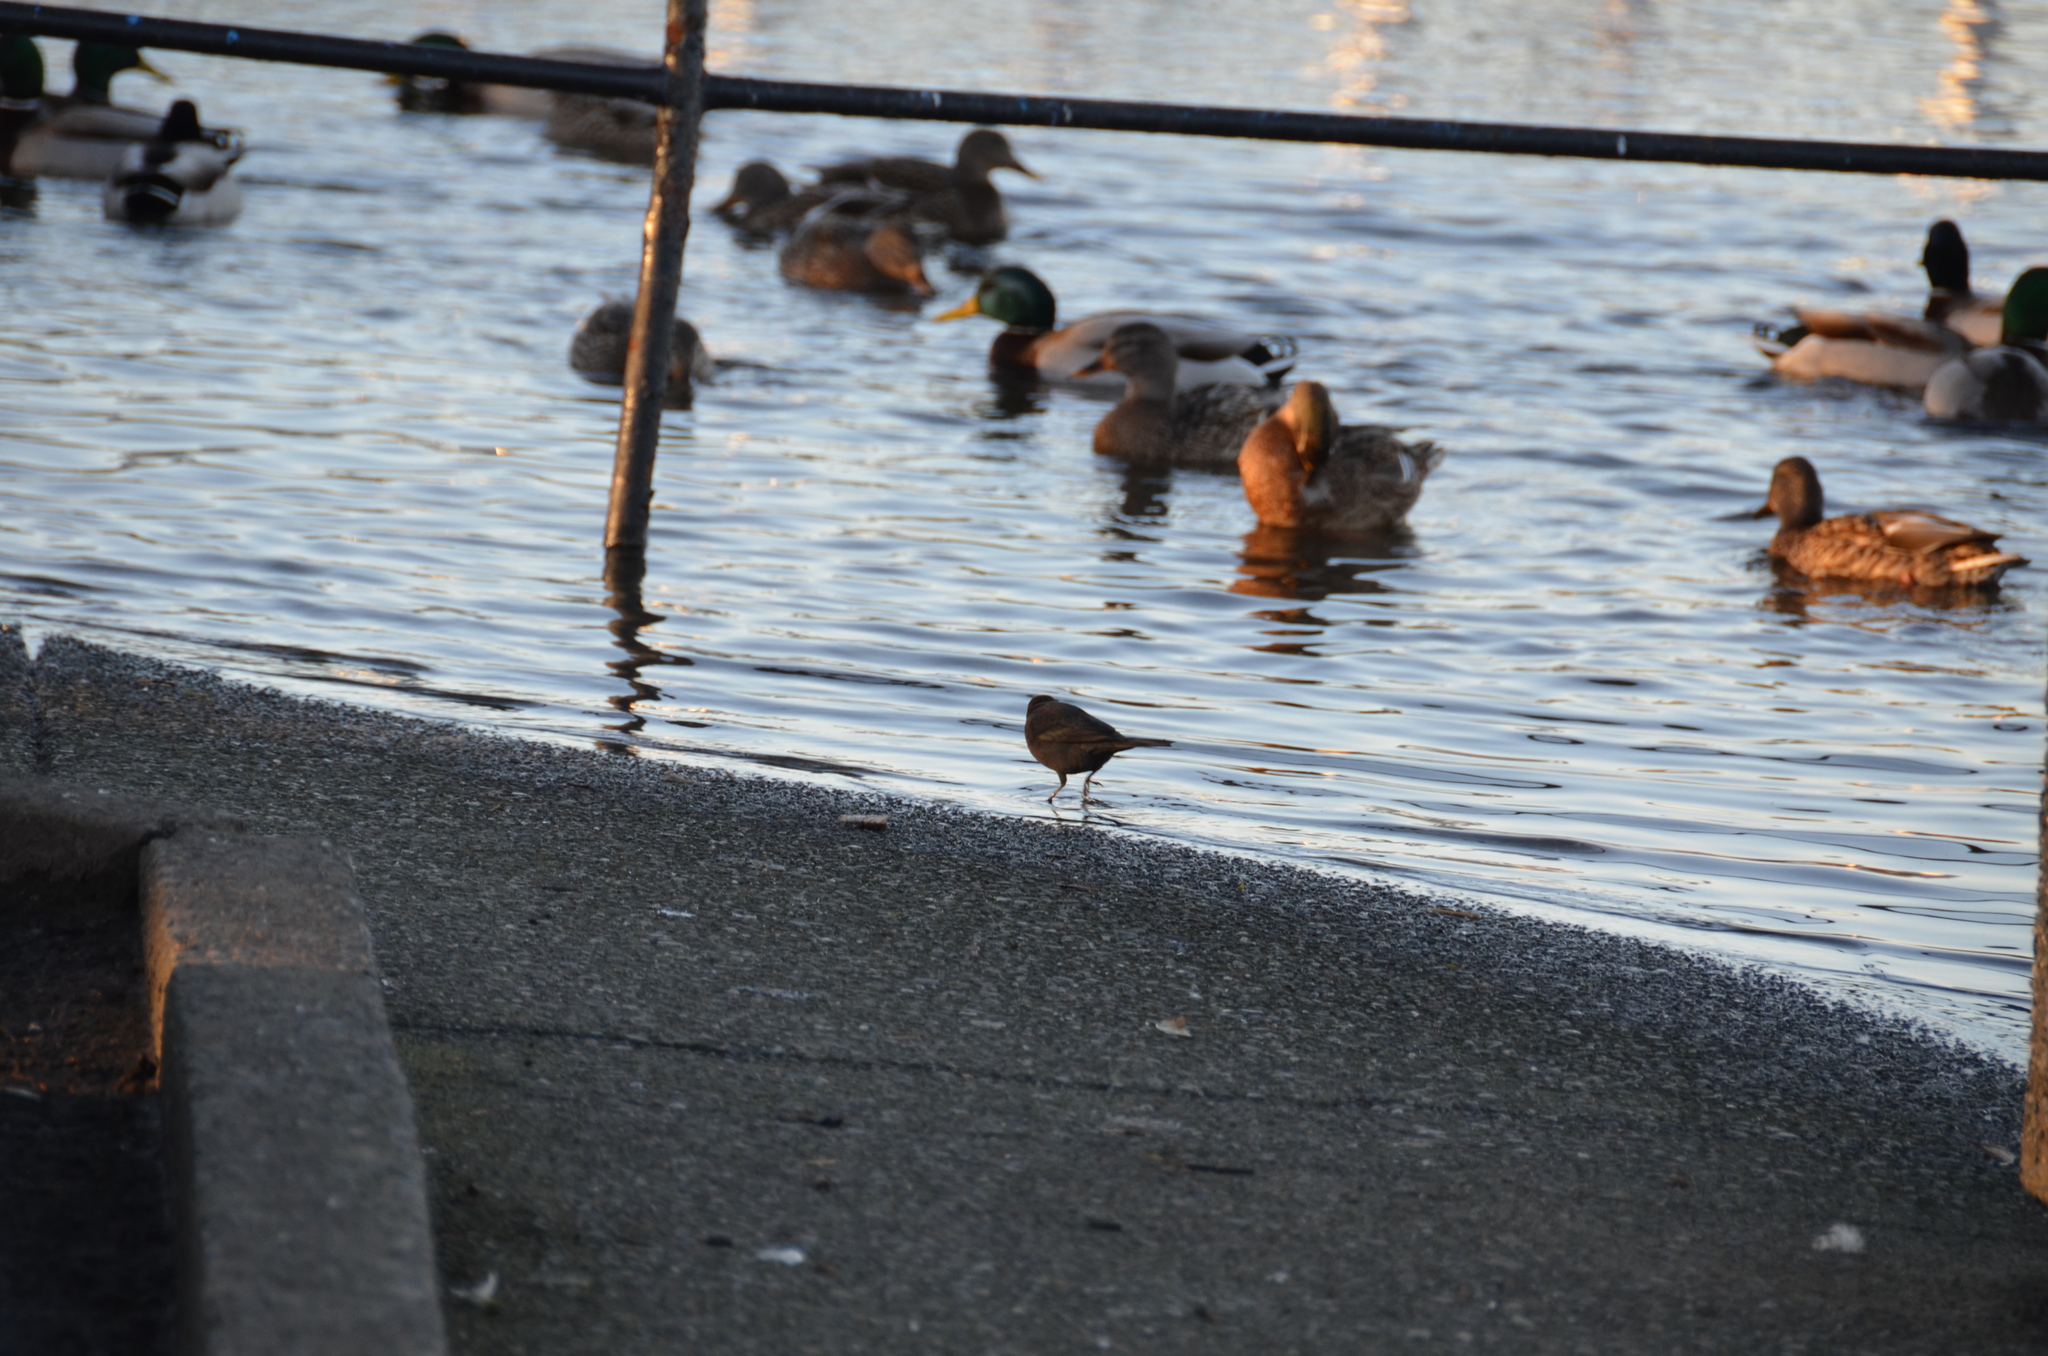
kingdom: Animalia
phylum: Chordata
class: Aves
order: Passeriformes
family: Icteridae
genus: Euphagus
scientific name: Euphagus cyanocephalus
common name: Brewer's blackbird
